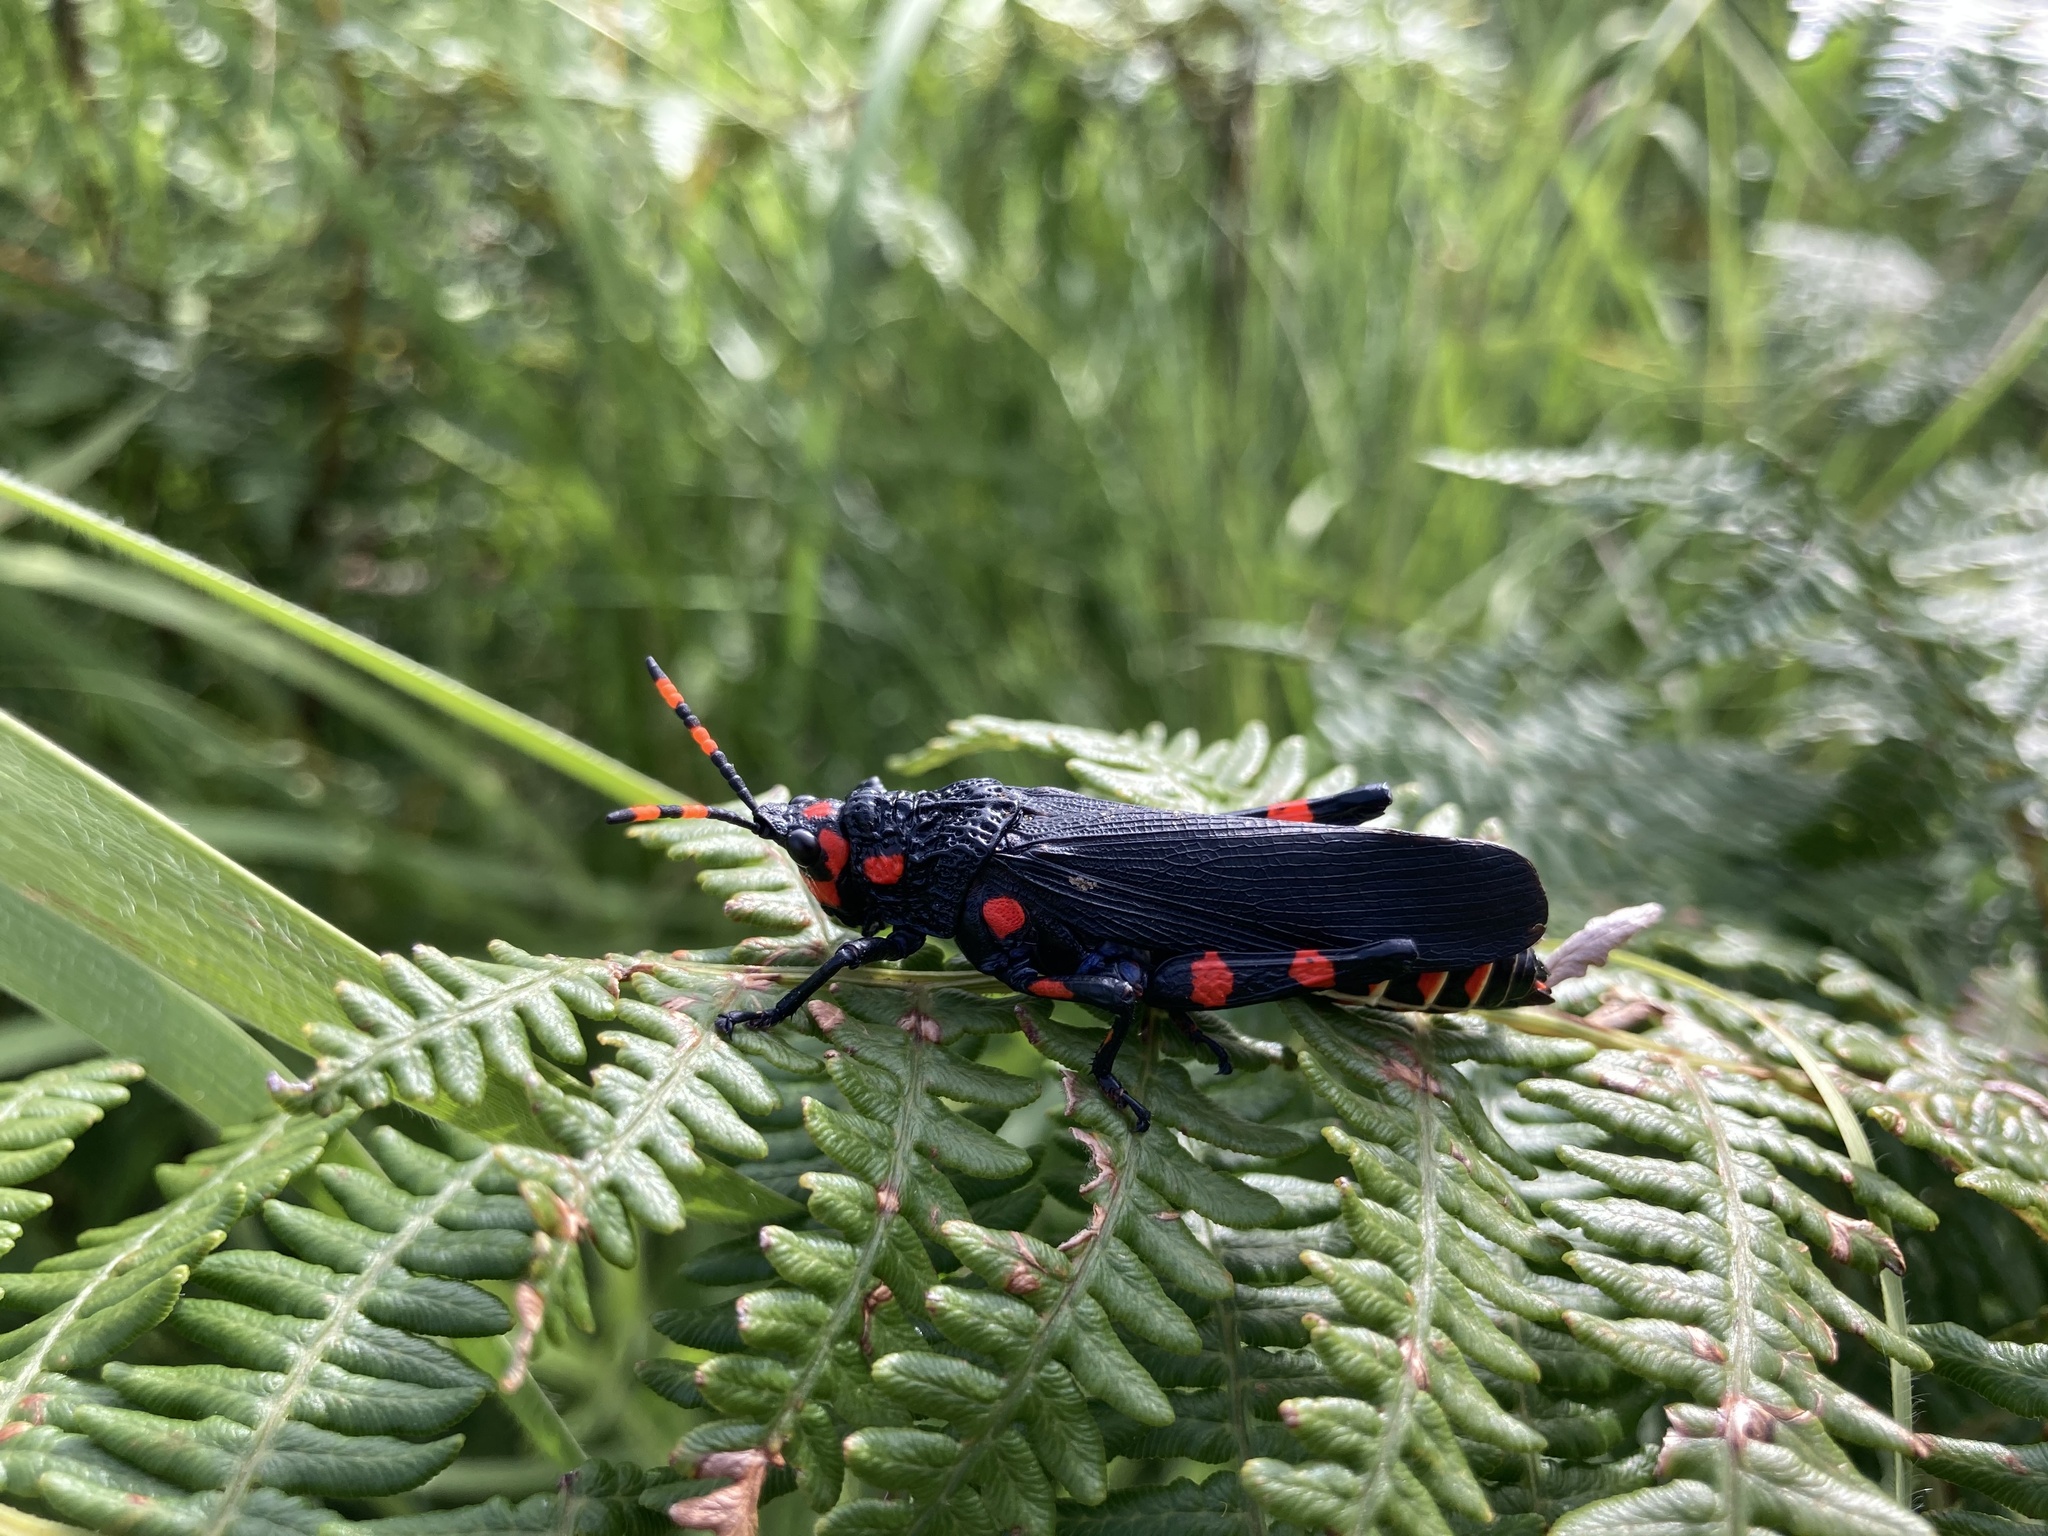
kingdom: Animalia
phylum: Arthropoda
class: Insecta
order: Orthoptera
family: Pyrgomorphidae
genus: Maura
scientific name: Maura rubroornata
